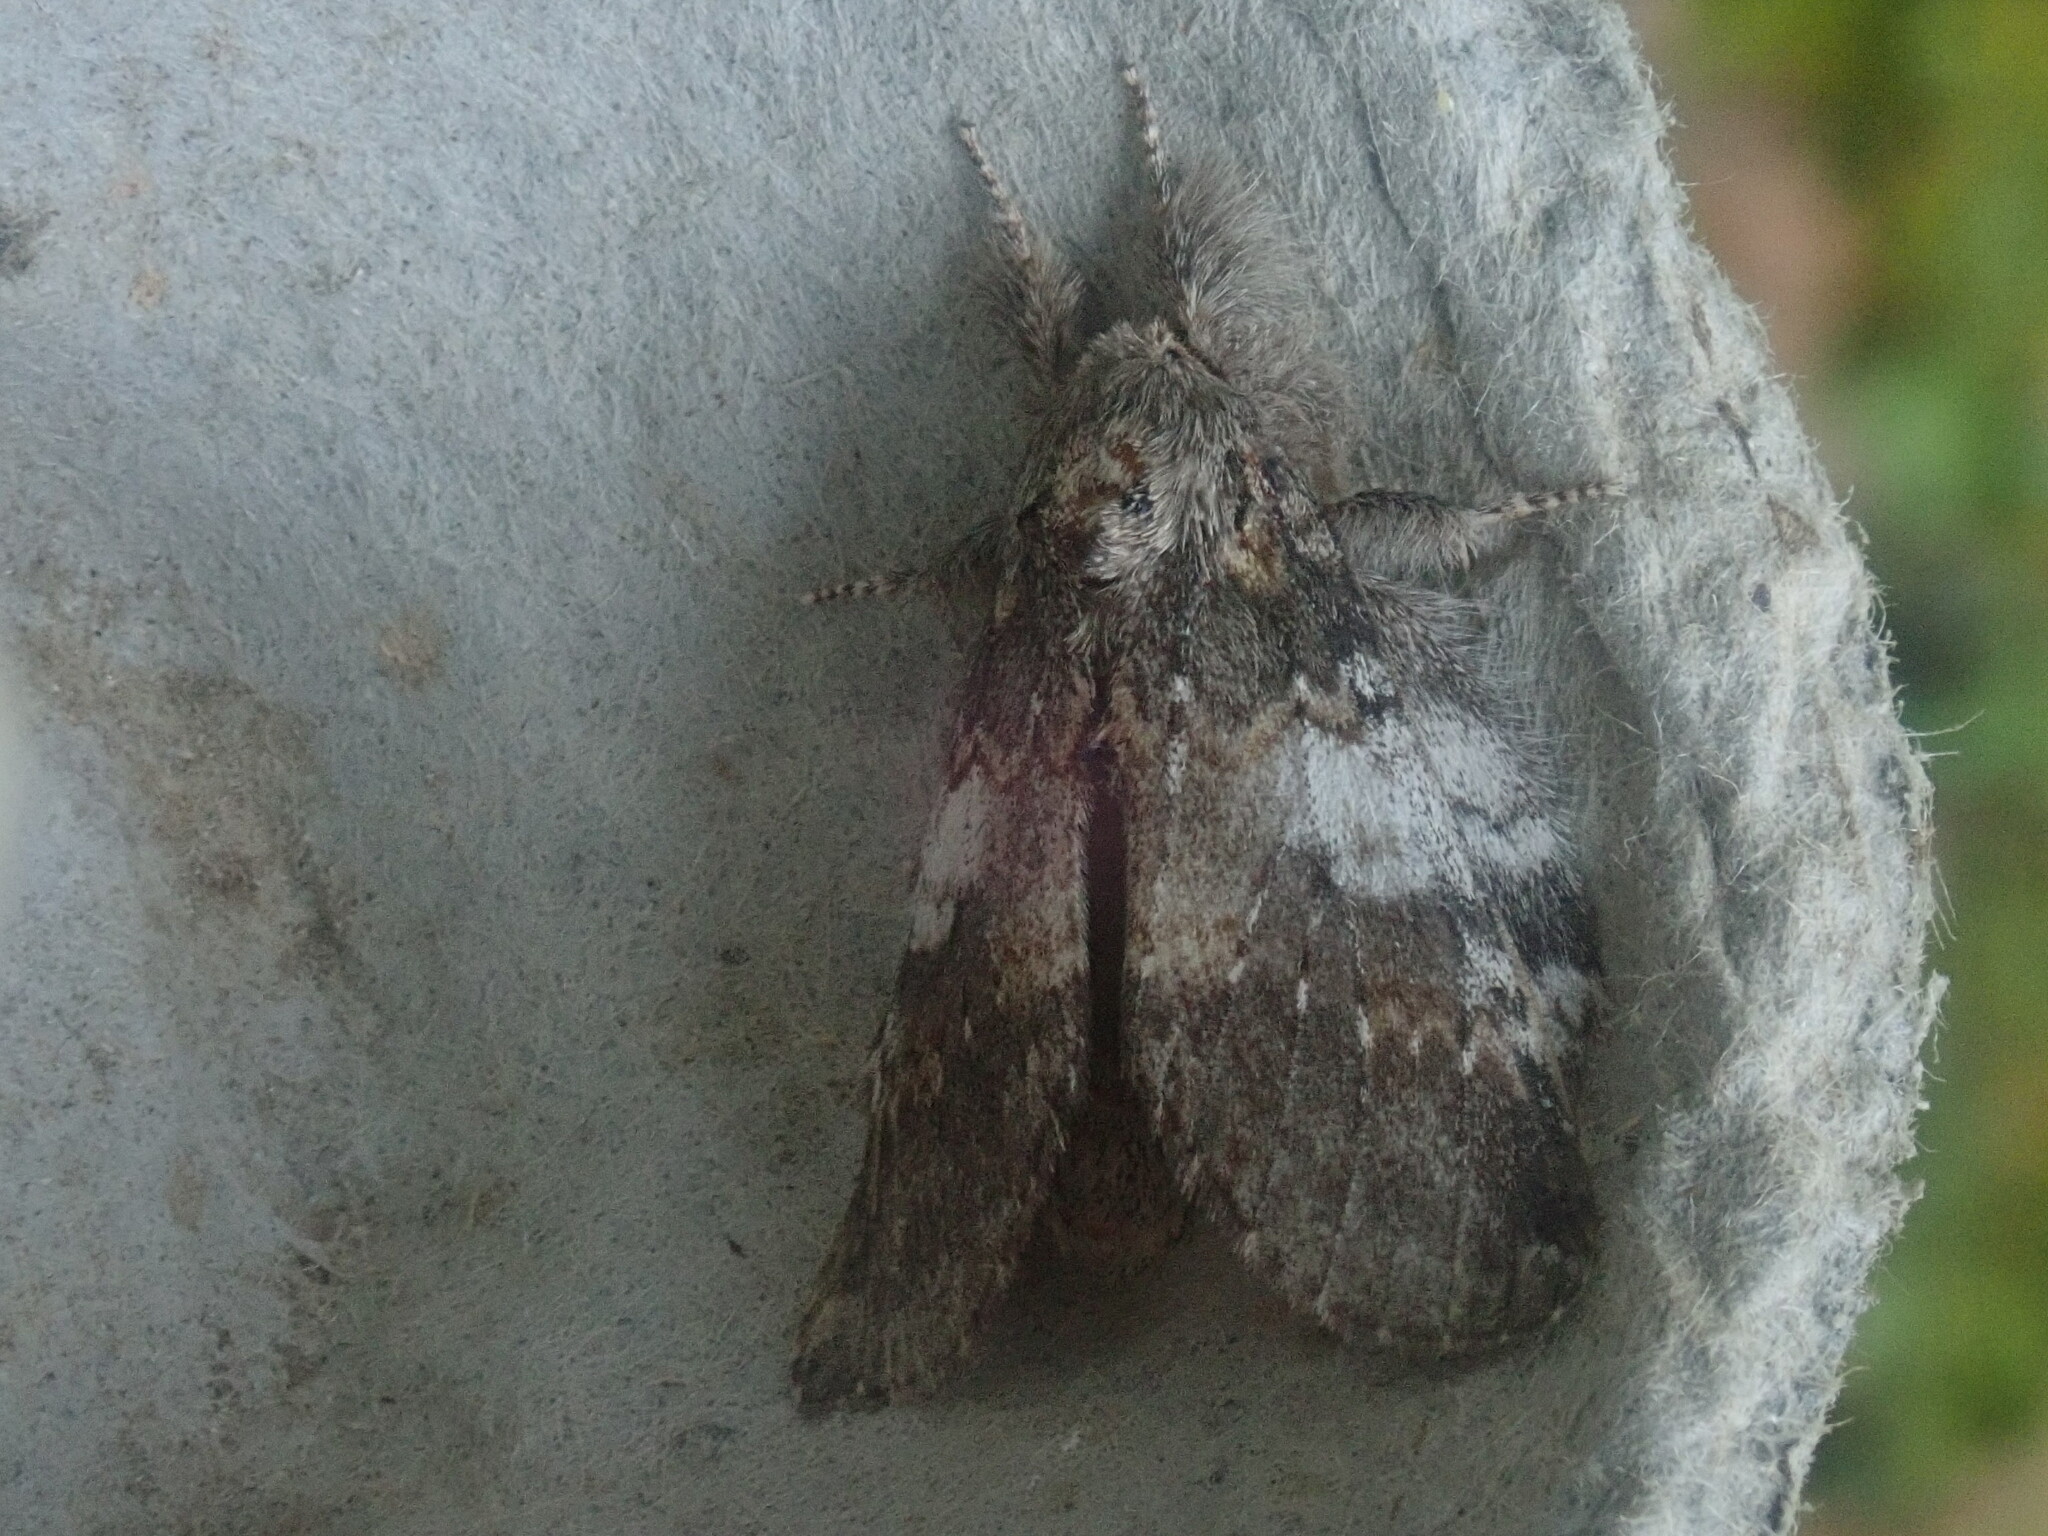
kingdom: Animalia
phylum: Arthropoda
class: Insecta
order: Lepidoptera
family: Notodontidae
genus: Peridea
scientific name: Peridea angulosa
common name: Angulose prominent
